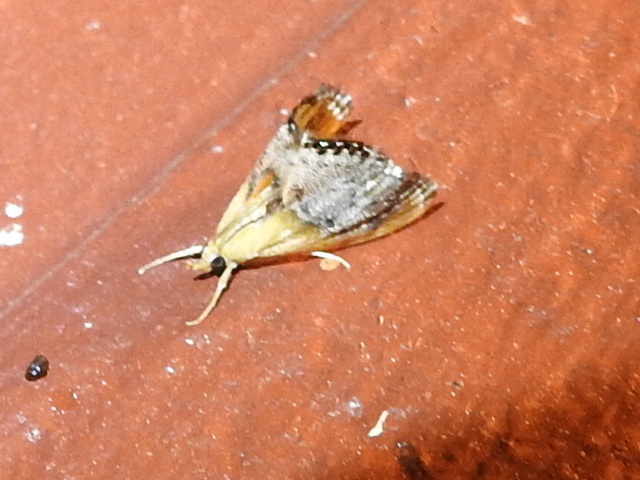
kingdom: Animalia
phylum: Arthropoda
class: Insecta
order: Lepidoptera
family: Crambidae
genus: Chalcoela
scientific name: Chalcoela iphitalis
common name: Sooty-winged chalcoela moth
